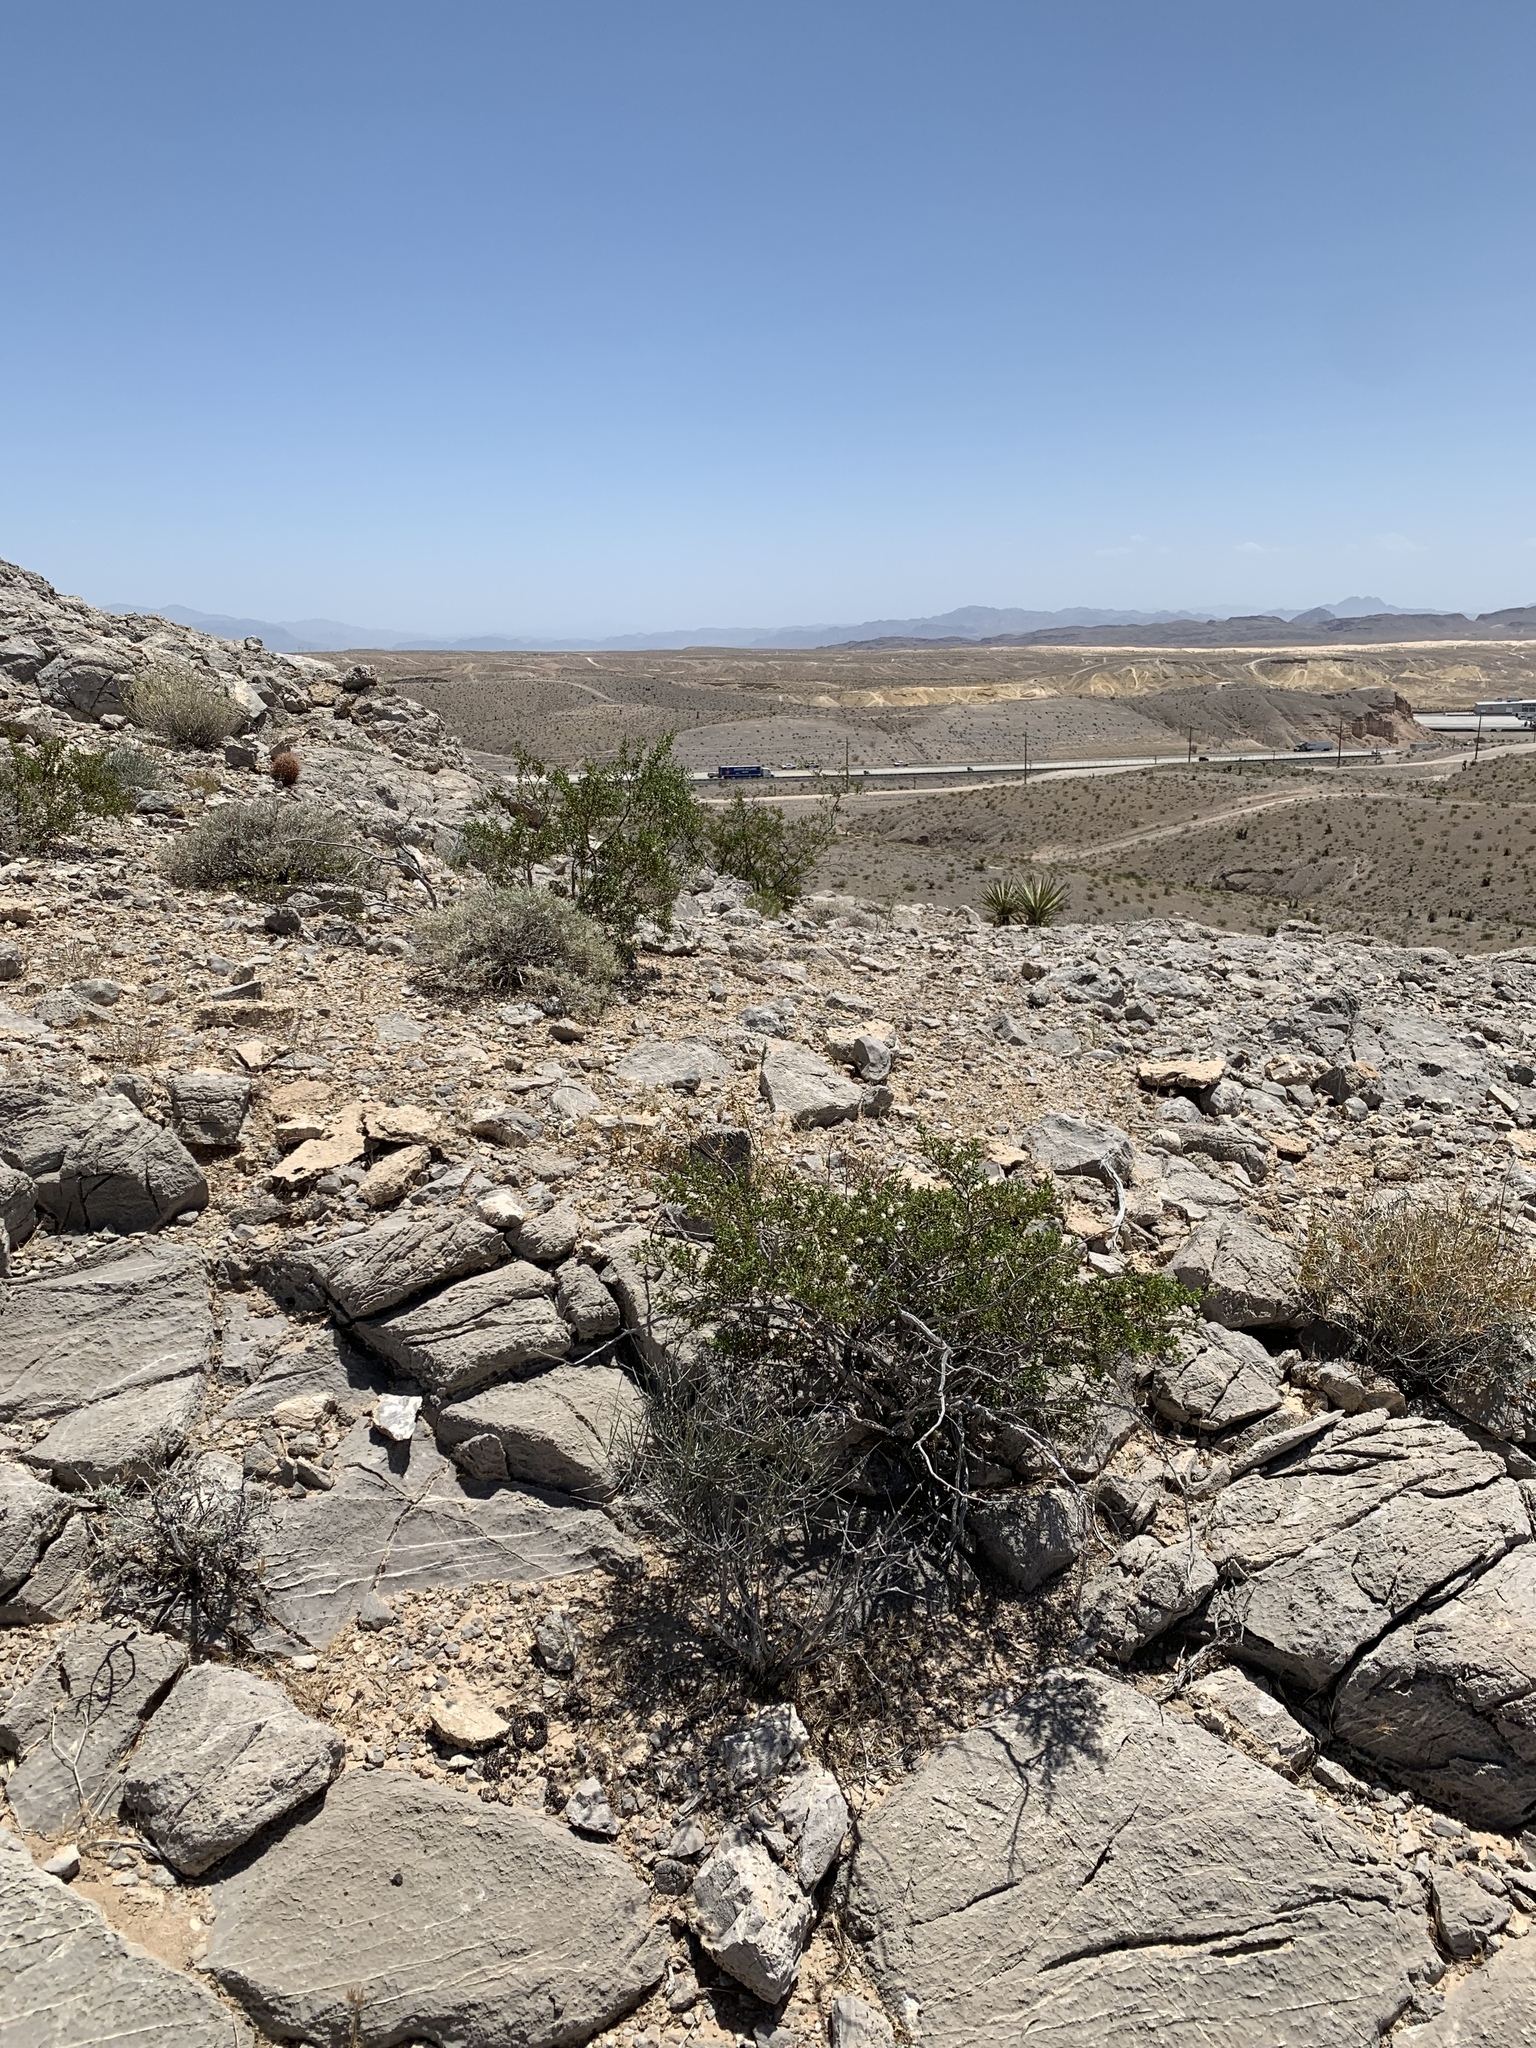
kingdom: Plantae
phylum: Tracheophyta
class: Magnoliopsida
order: Zygophyllales
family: Zygophyllaceae
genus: Larrea
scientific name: Larrea tridentata
